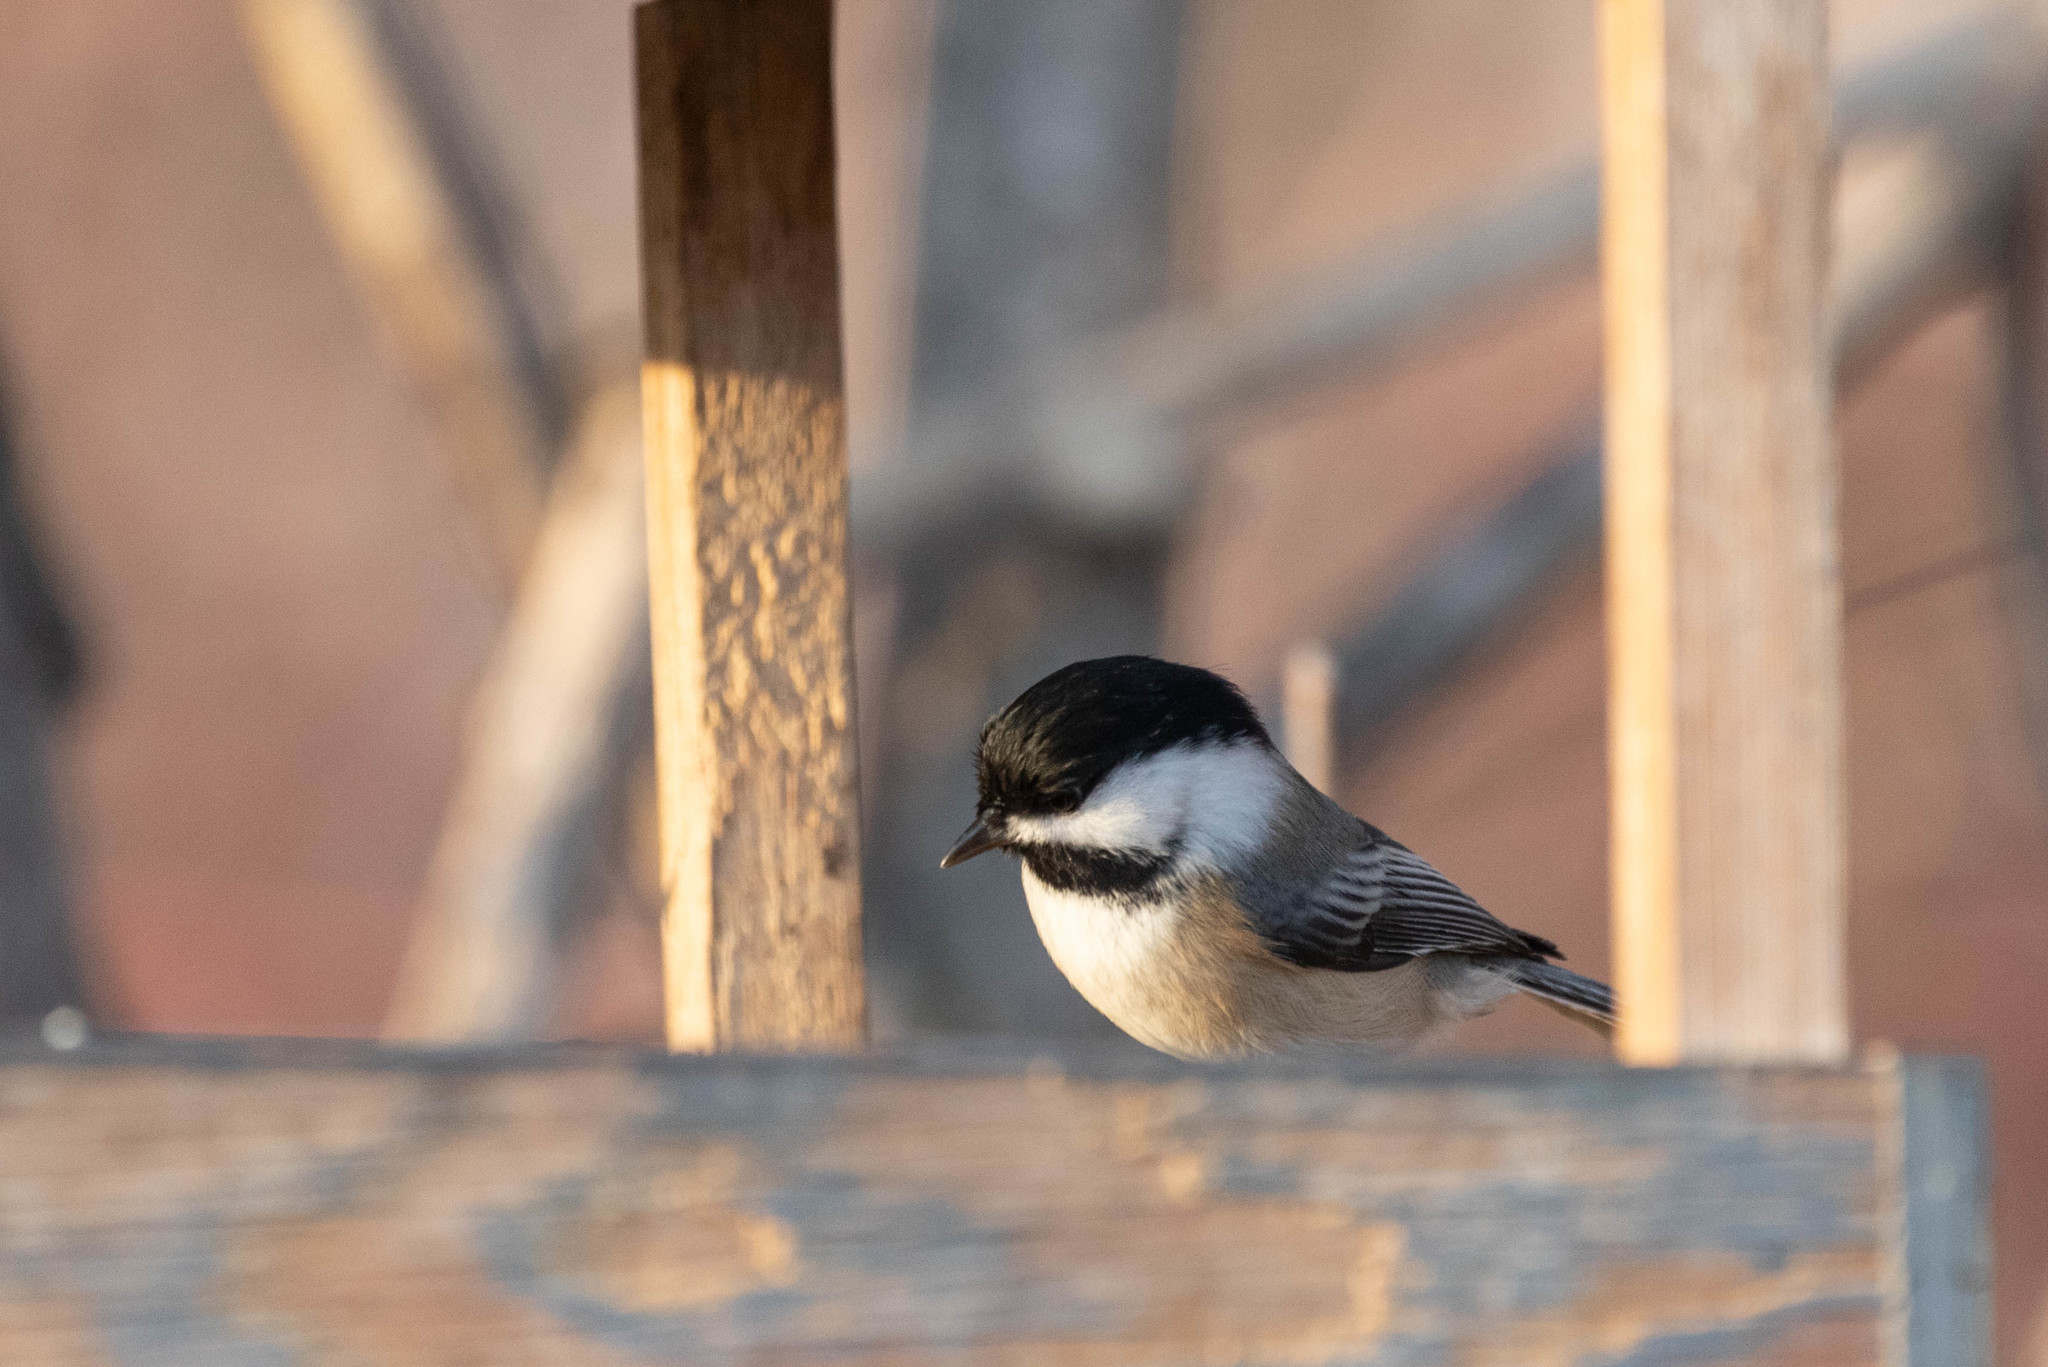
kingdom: Animalia
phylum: Chordata
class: Aves
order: Passeriformes
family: Paridae
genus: Poecile
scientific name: Poecile atricapillus
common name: Black-capped chickadee
